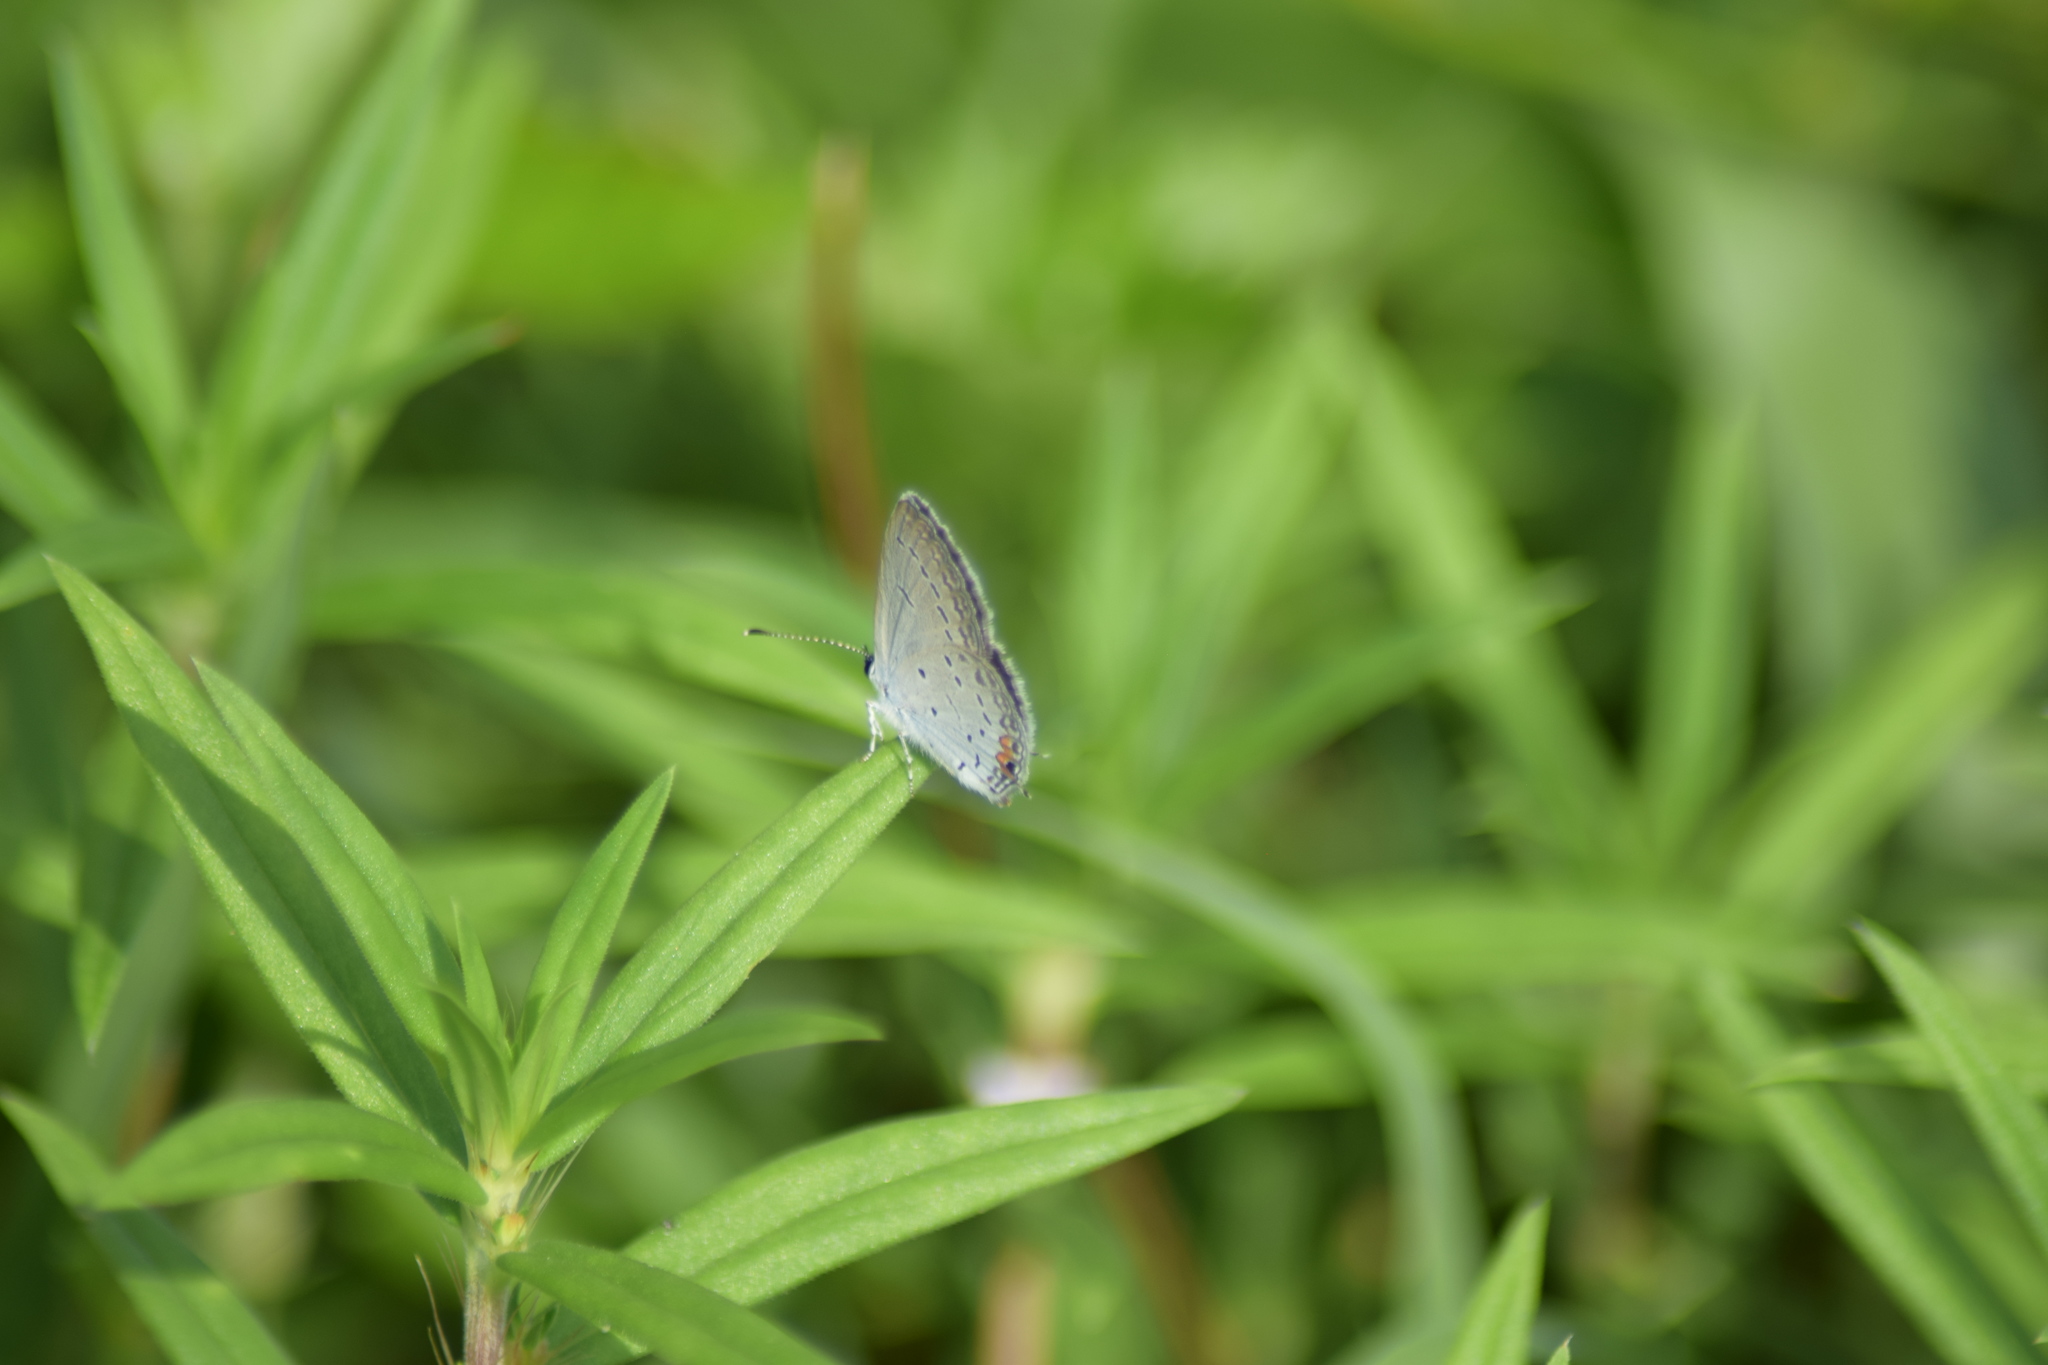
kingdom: Animalia
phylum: Arthropoda
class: Insecta
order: Lepidoptera
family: Lycaenidae
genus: Elkalyce
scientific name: Elkalyce comyntas
